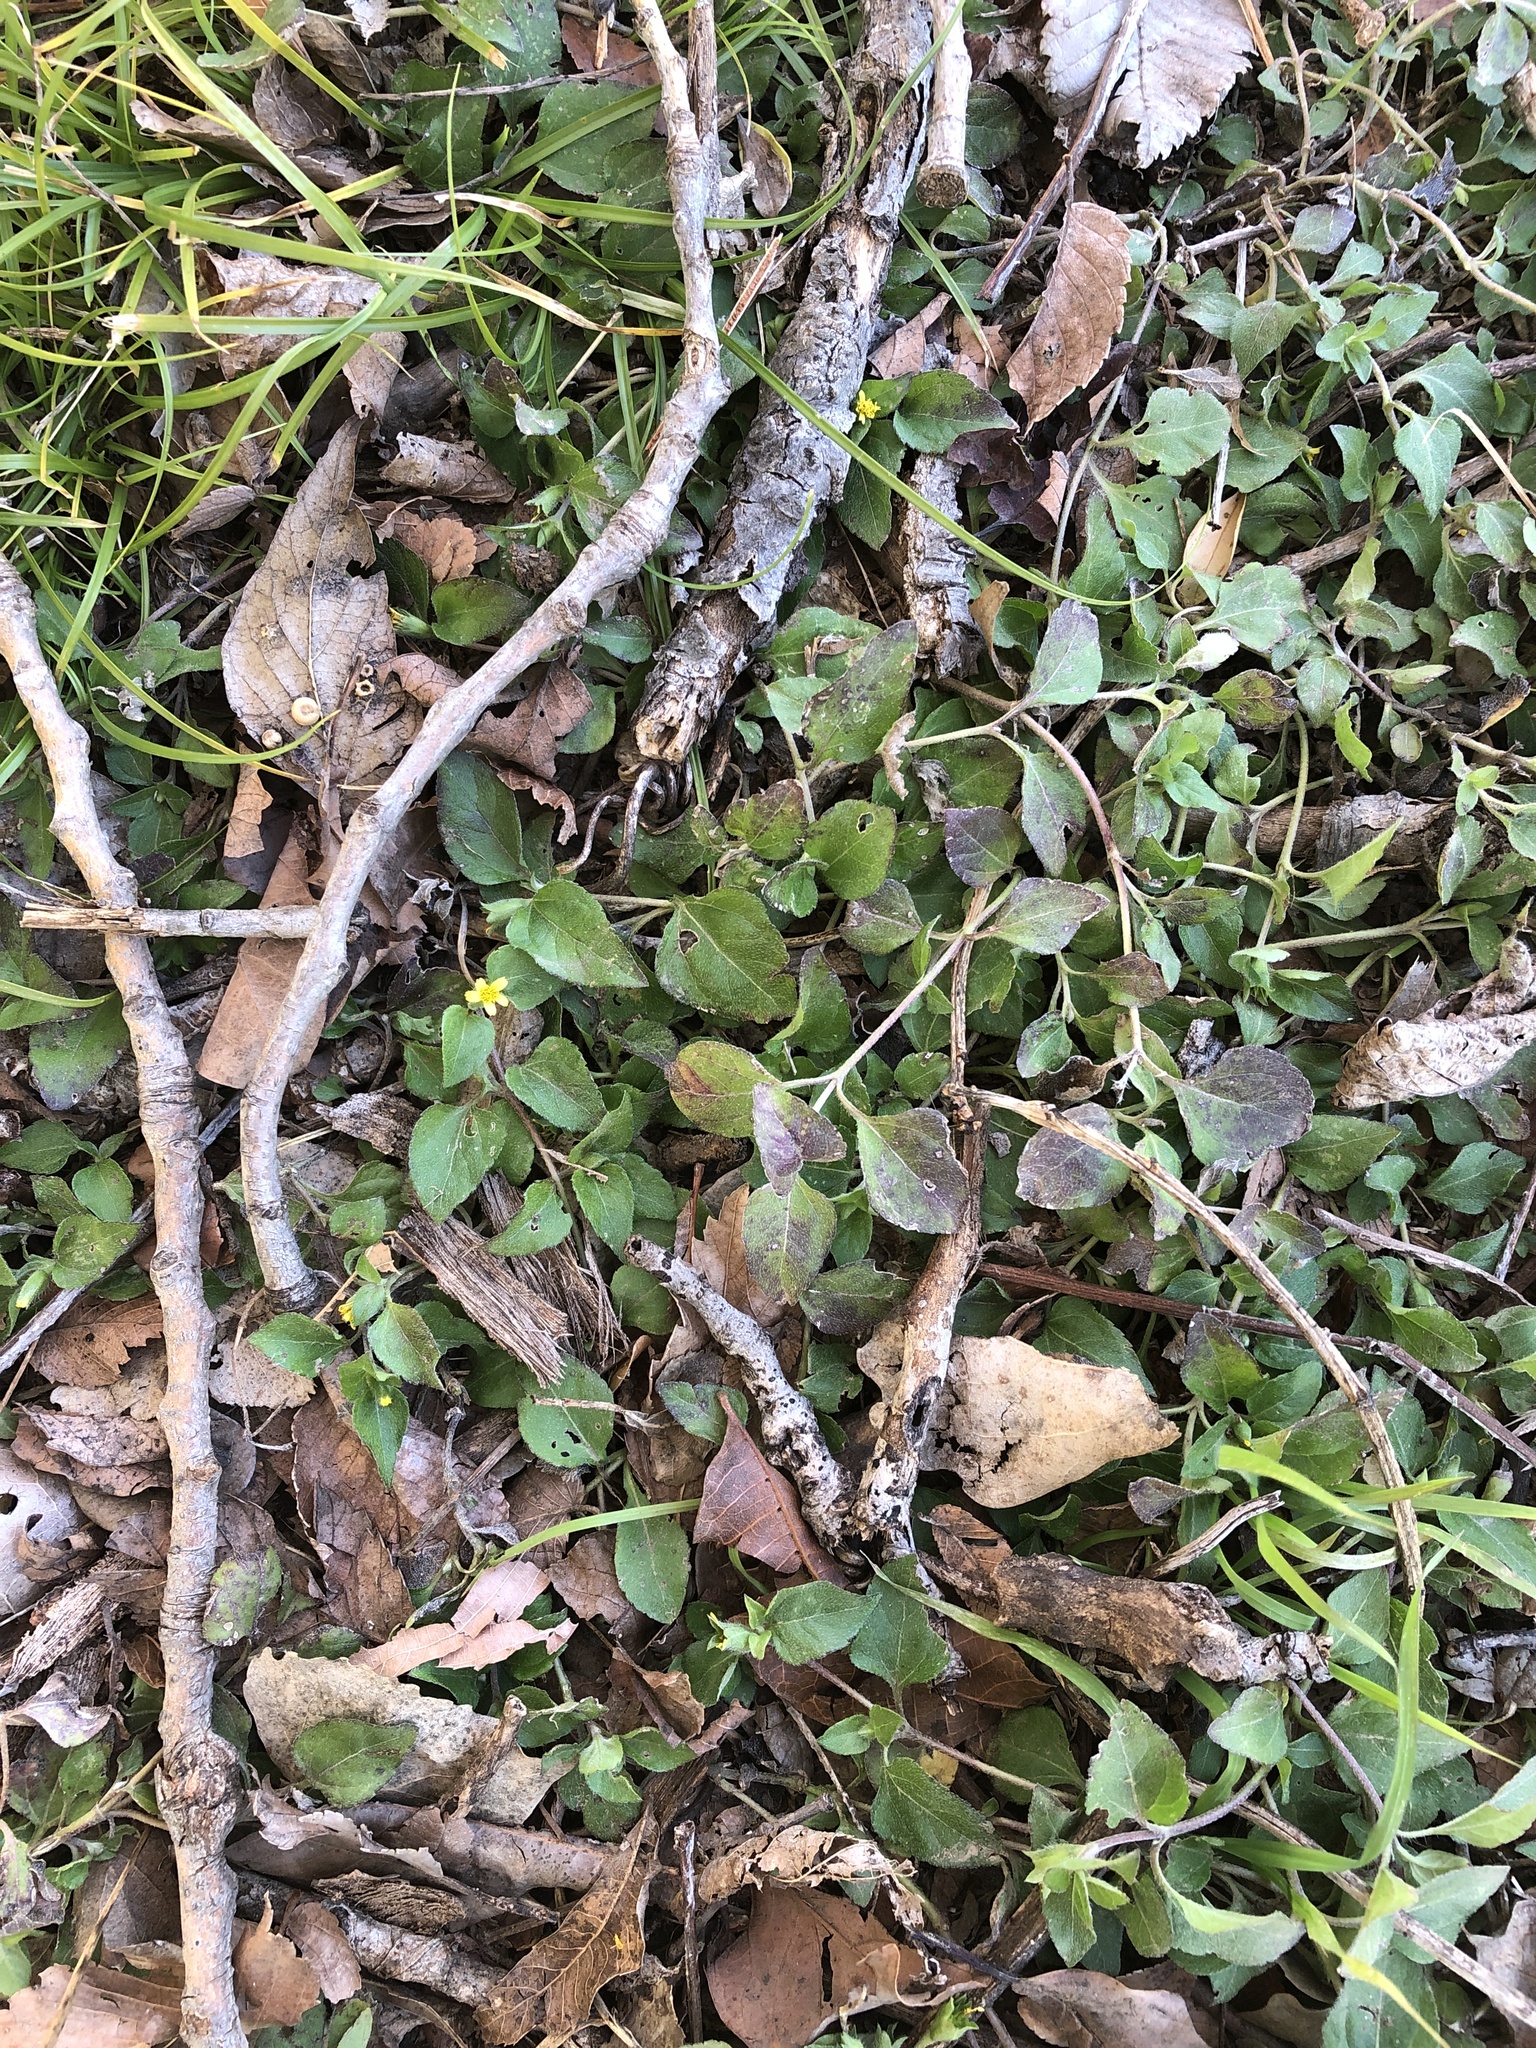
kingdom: Plantae
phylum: Tracheophyta
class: Magnoliopsida
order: Asterales
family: Asteraceae
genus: Calyptocarpus
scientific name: Calyptocarpus vialis
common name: Straggler daisy
